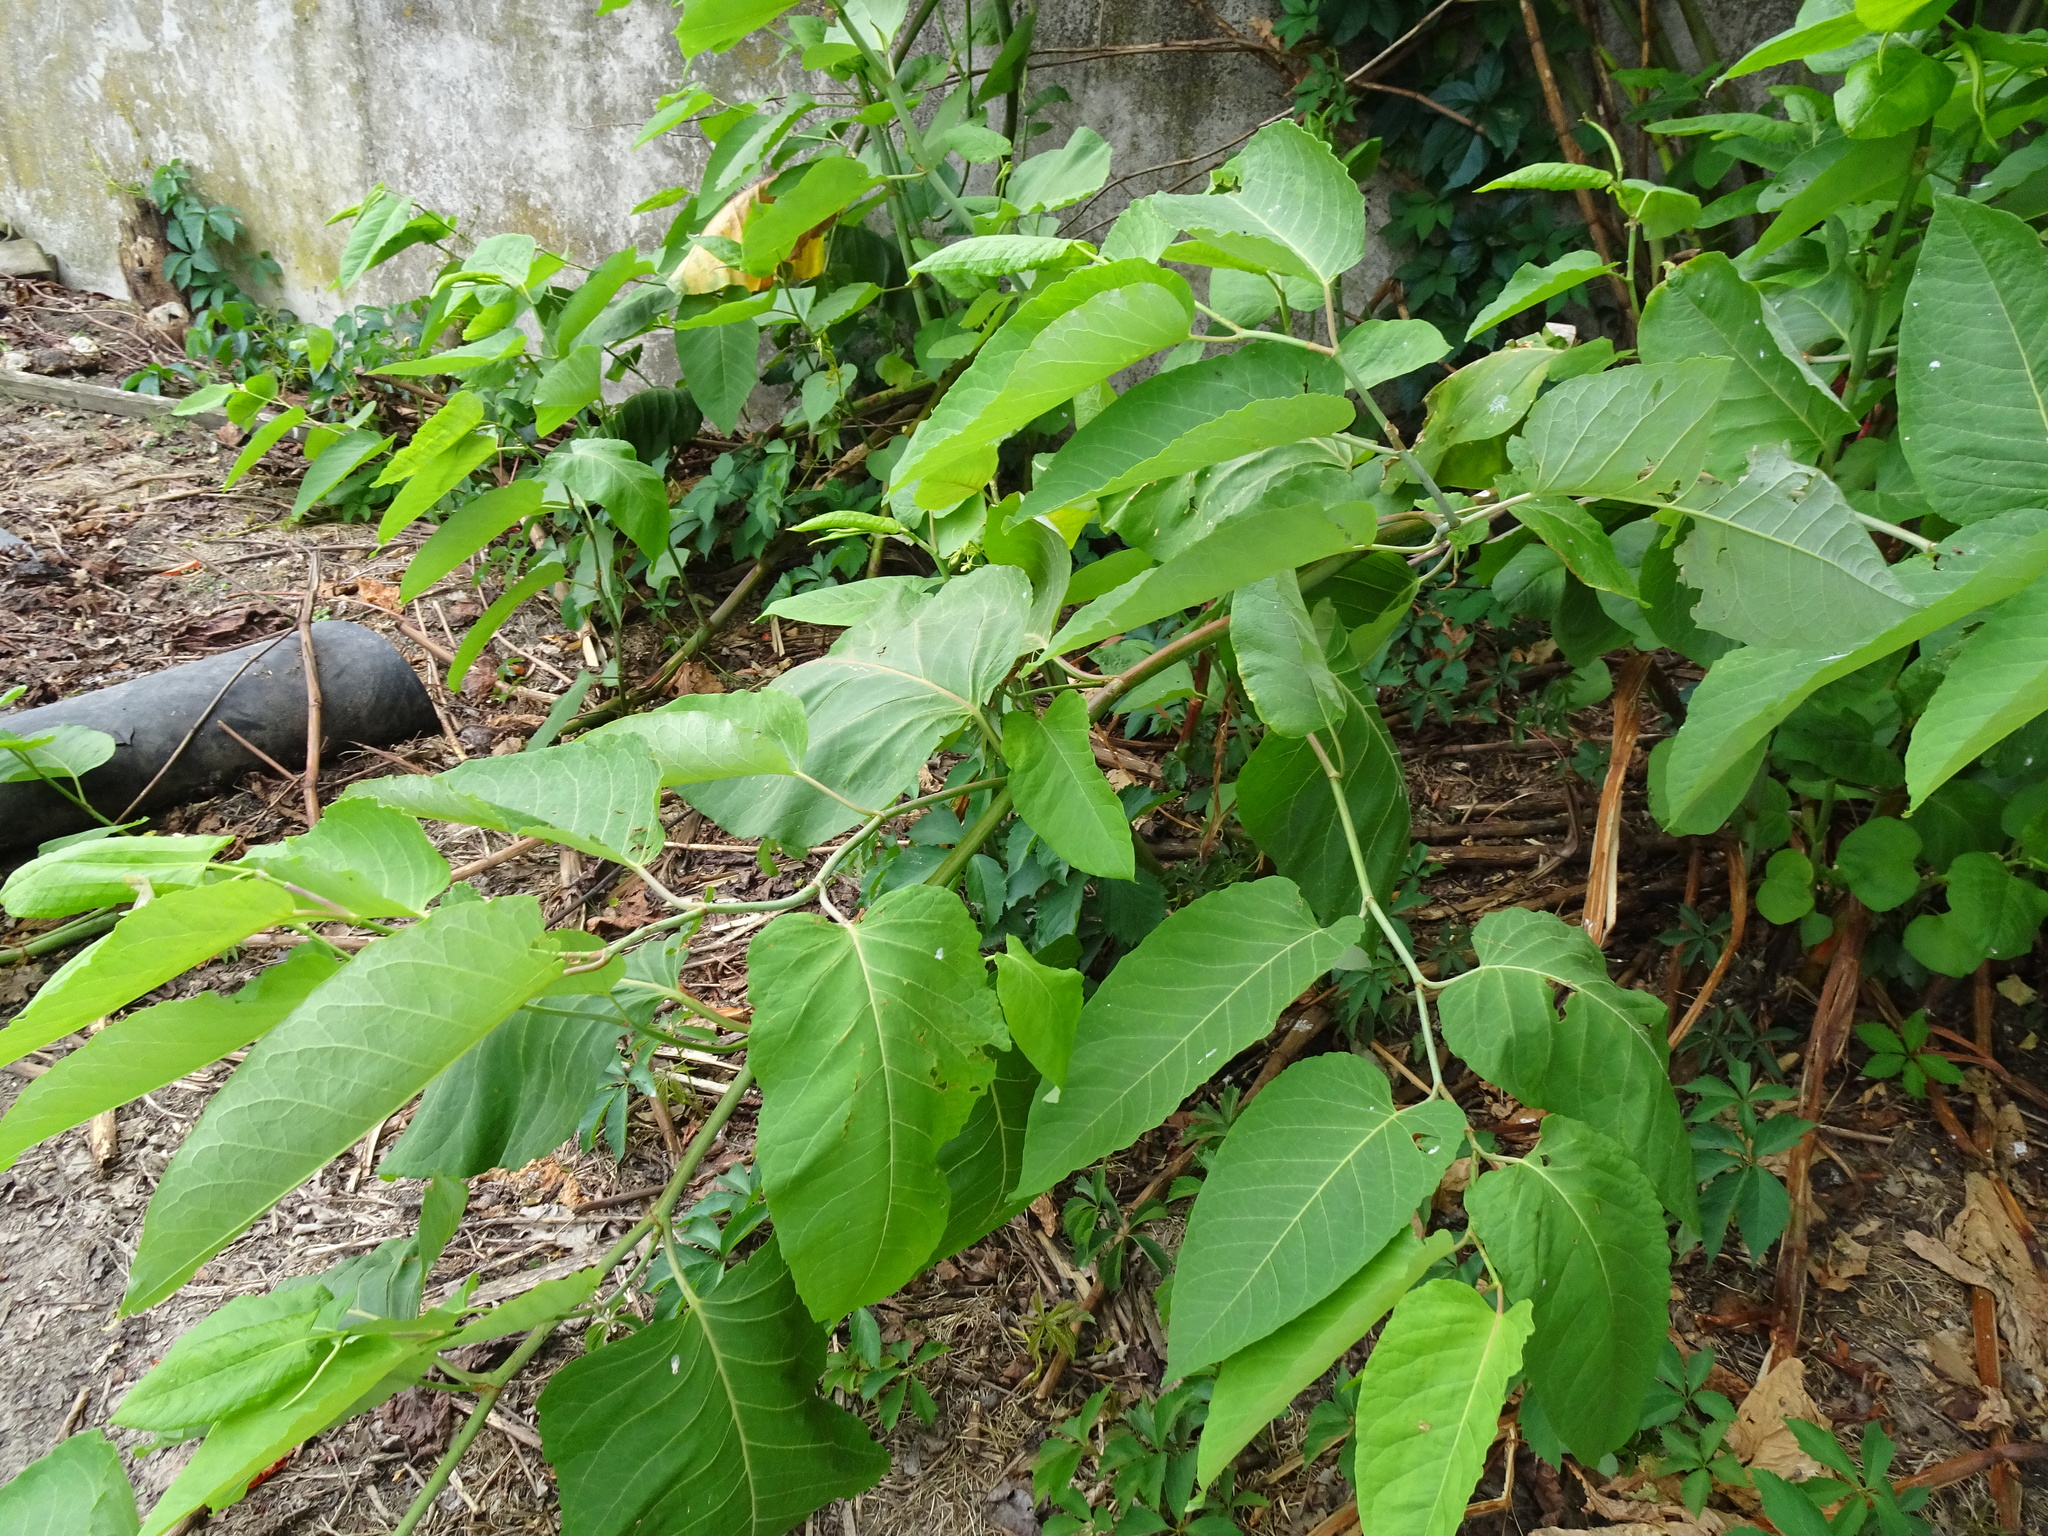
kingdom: Plantae
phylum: Tracheophyta
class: Magnoliopsida
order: Caryophyllales
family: Polygonaceae
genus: Reynoutria
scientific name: Reynoutria bohemica
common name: Bohemian knotweed
